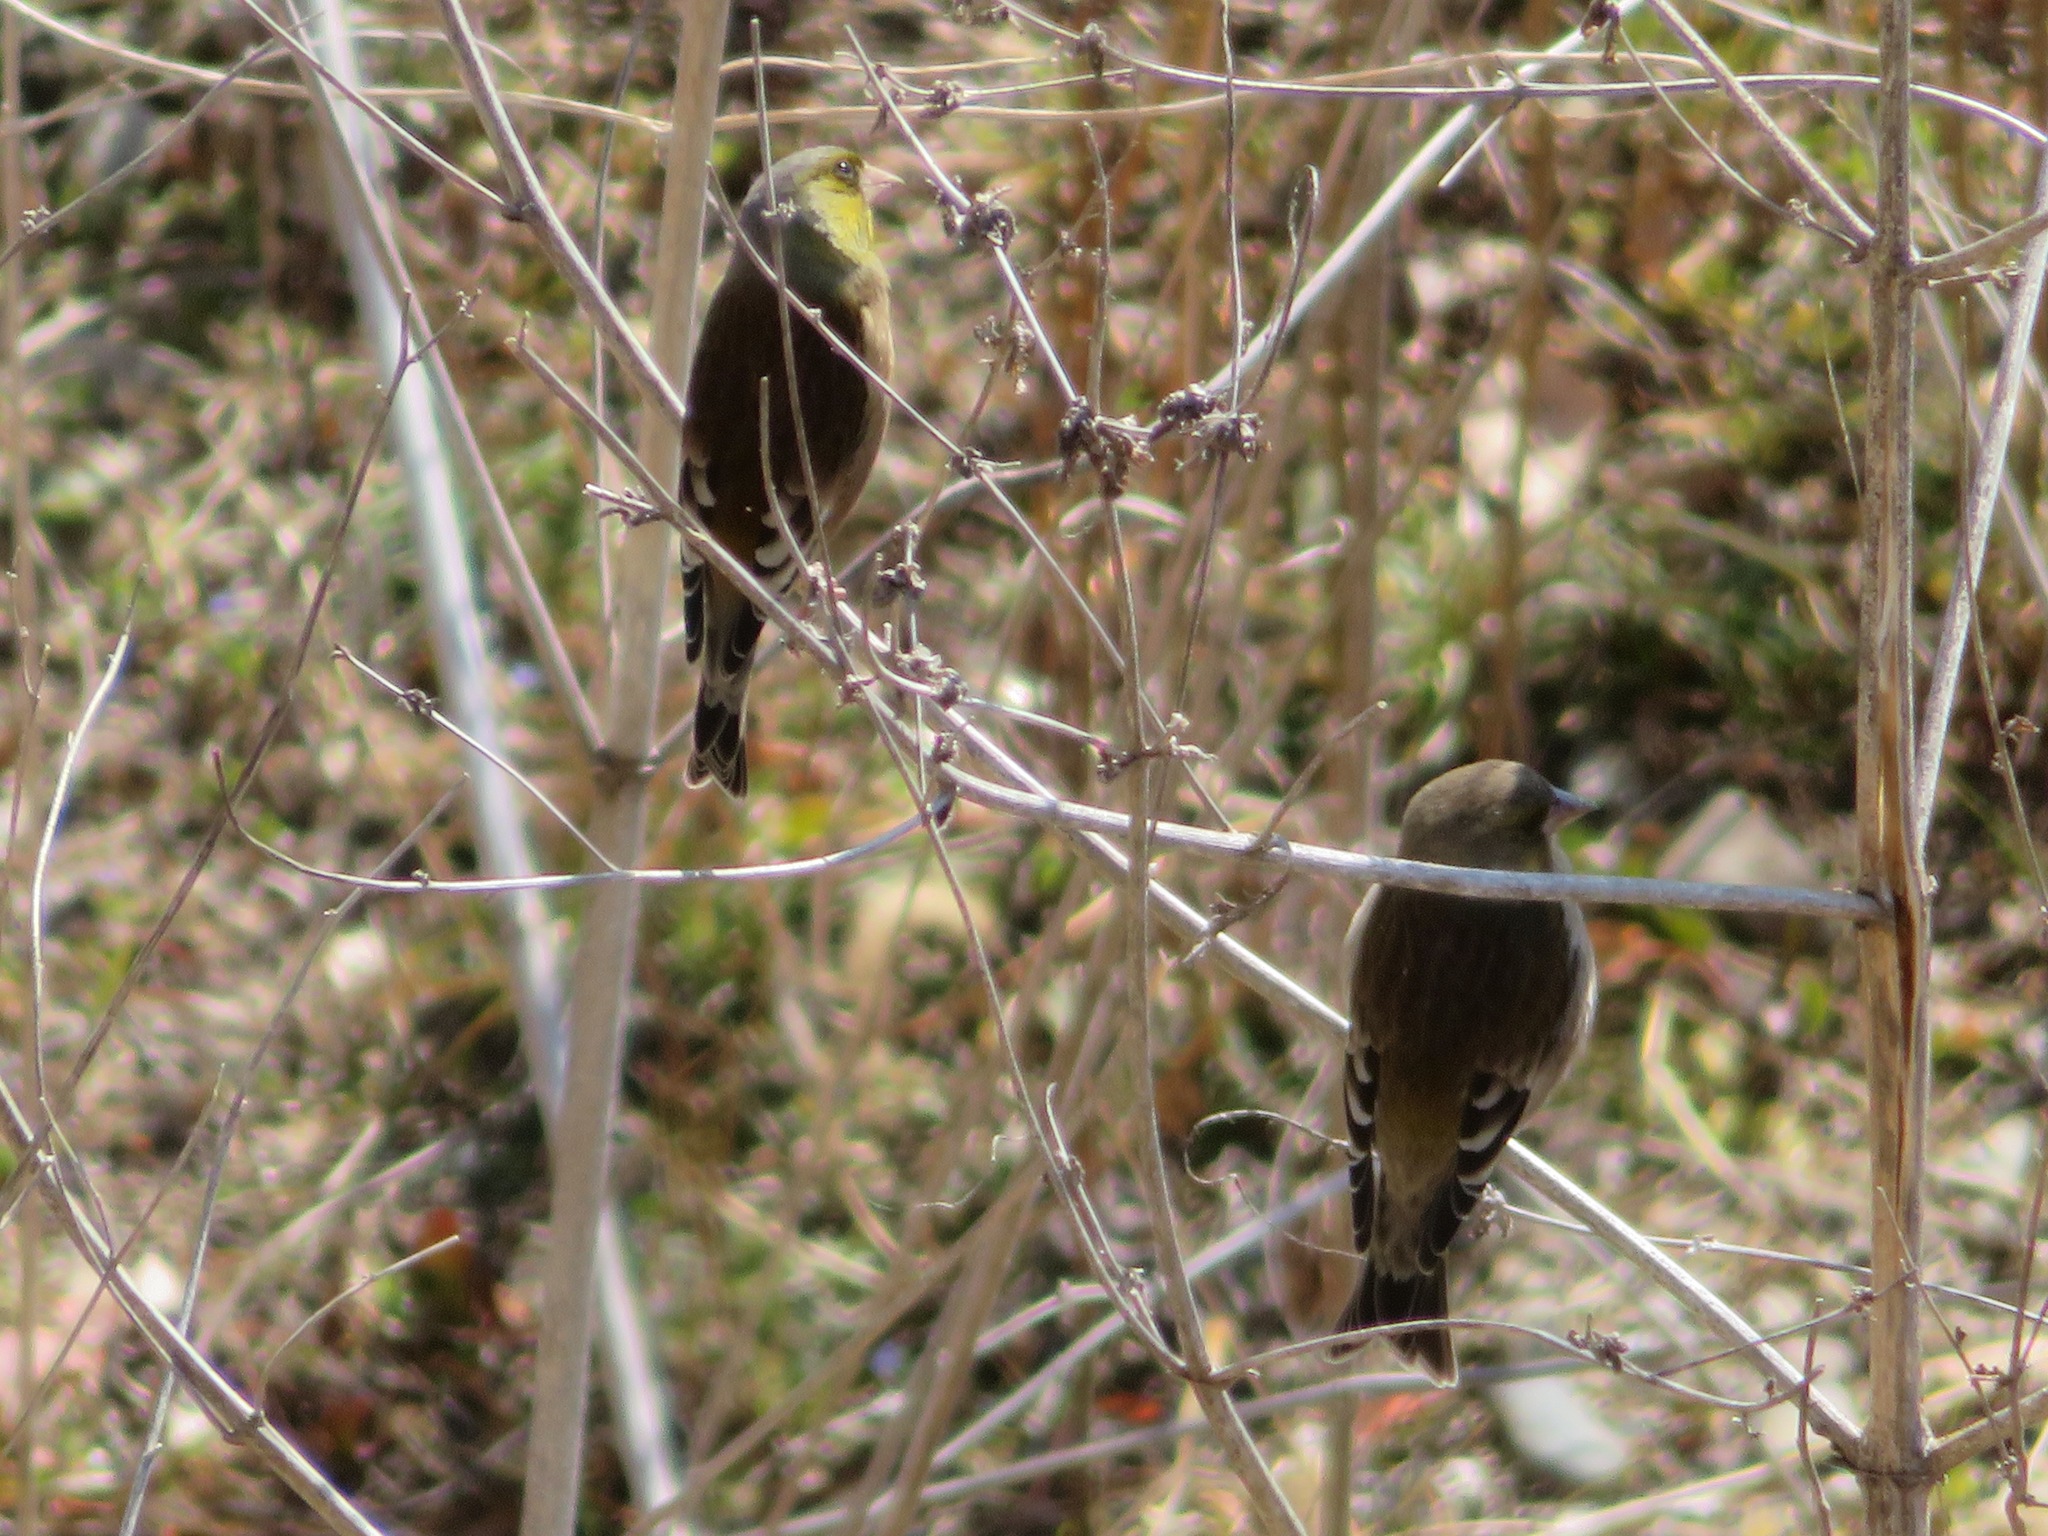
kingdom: Plantae
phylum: Tracheophyta
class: Liliopsida
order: Poales
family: Poaceae
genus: Chloris
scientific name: Chloris sinica
